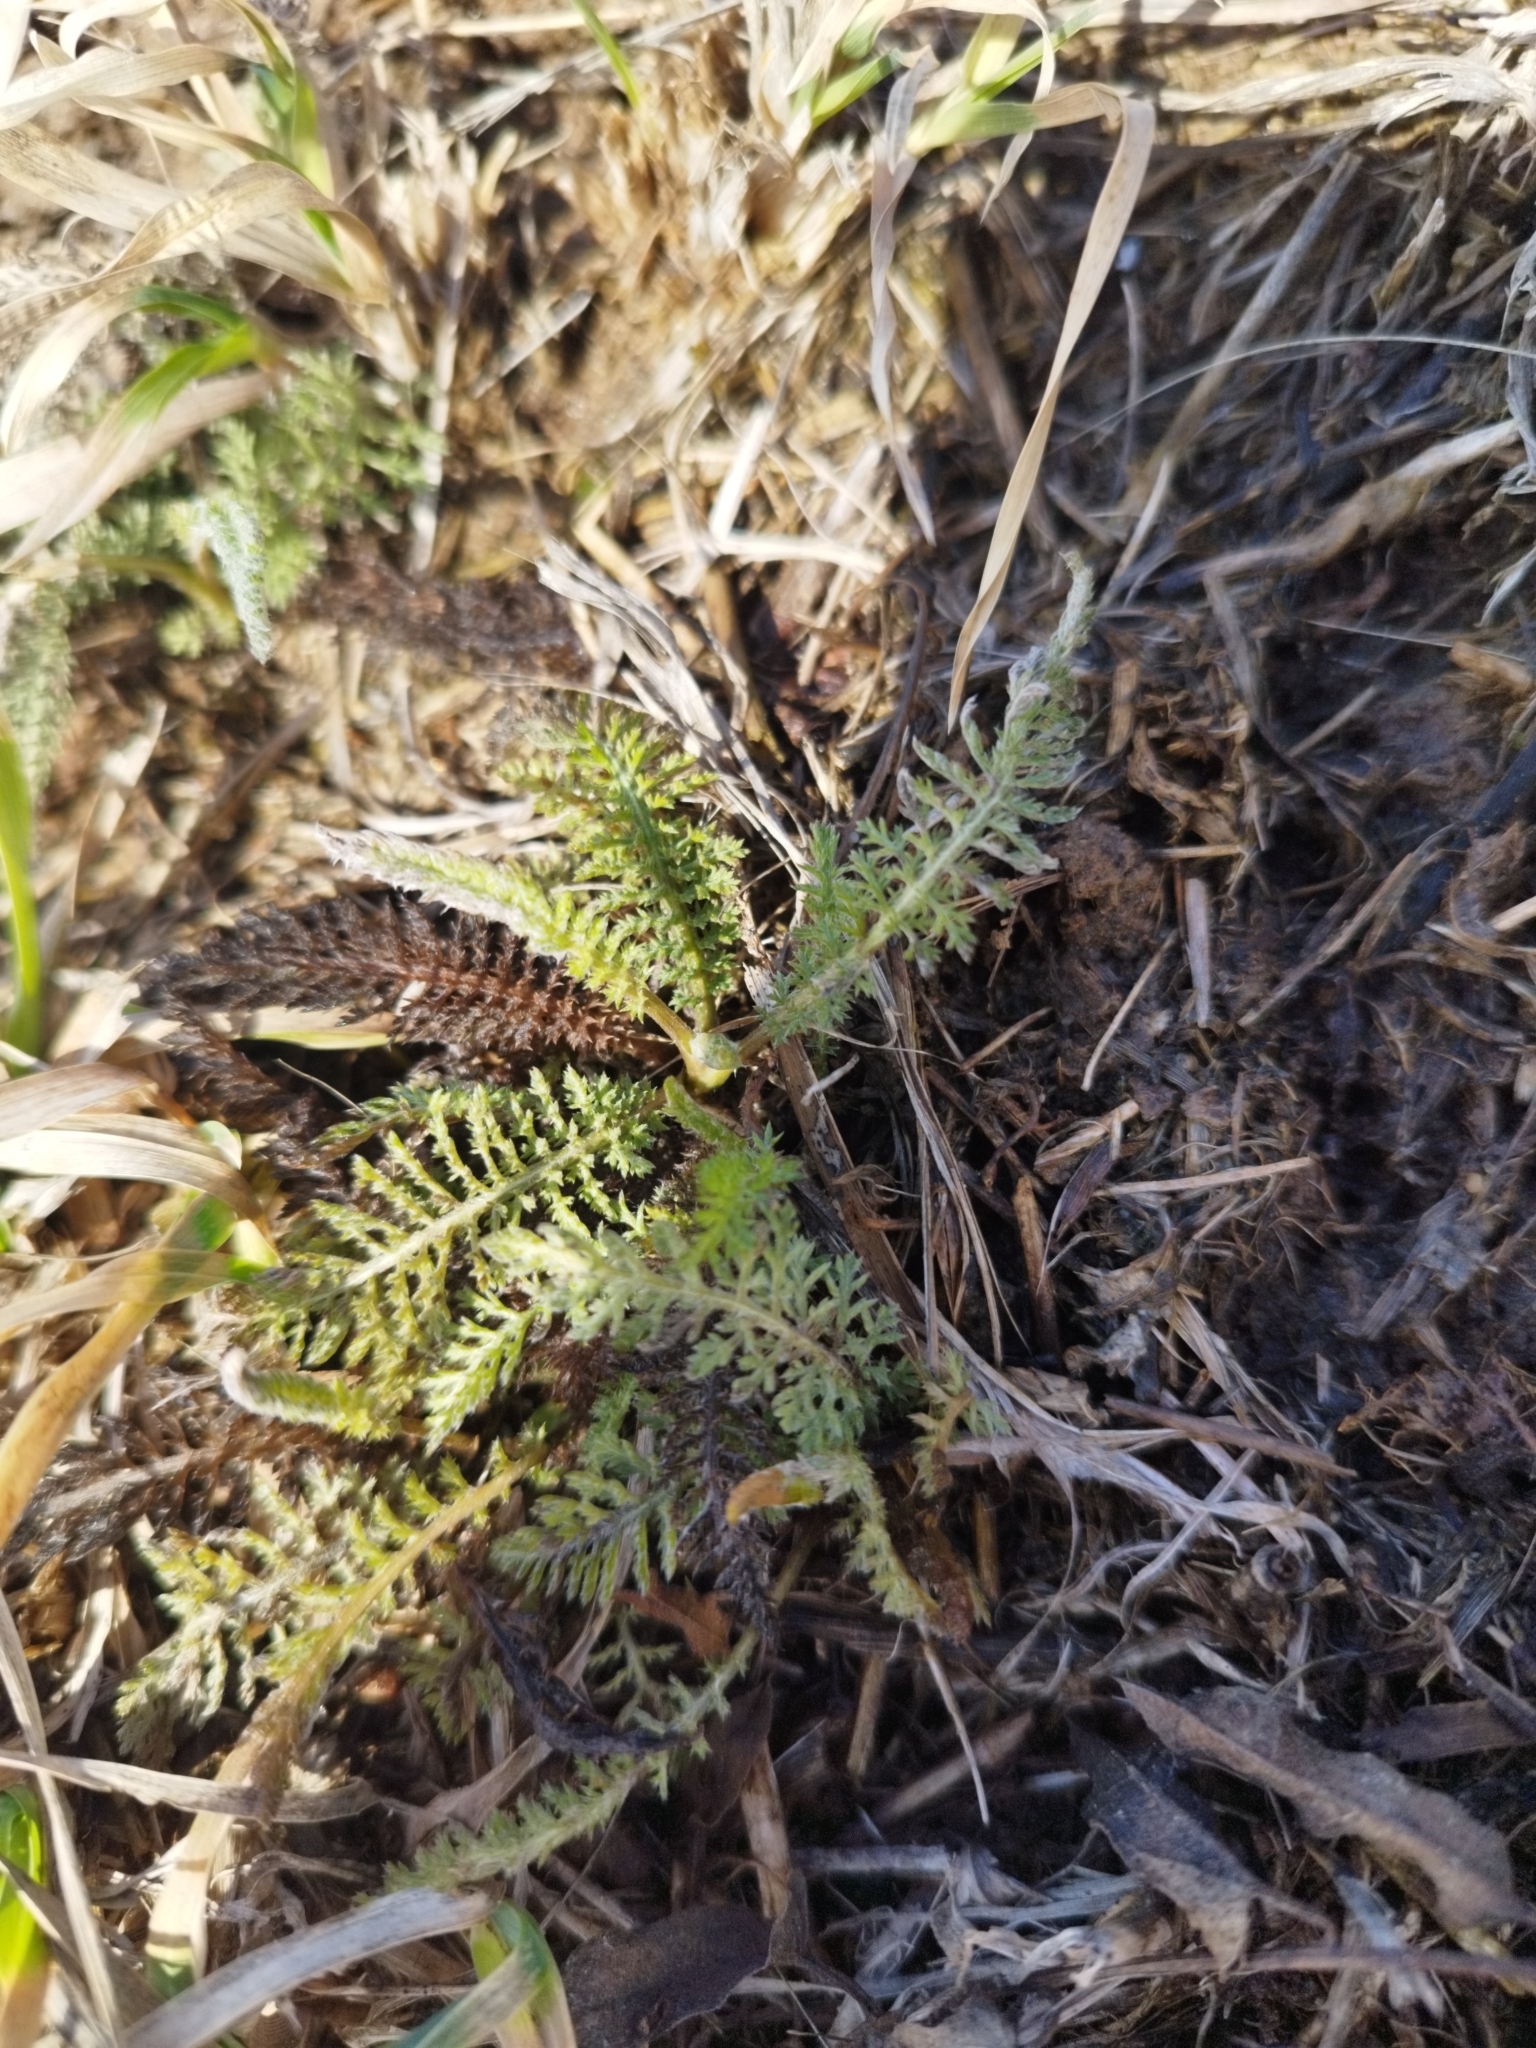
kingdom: Plantae
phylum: Tracheophyta
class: Magnoliopsida
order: Asterales
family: Asteraceae
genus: Achillea
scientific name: Achillea millefolium
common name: Yarrow
